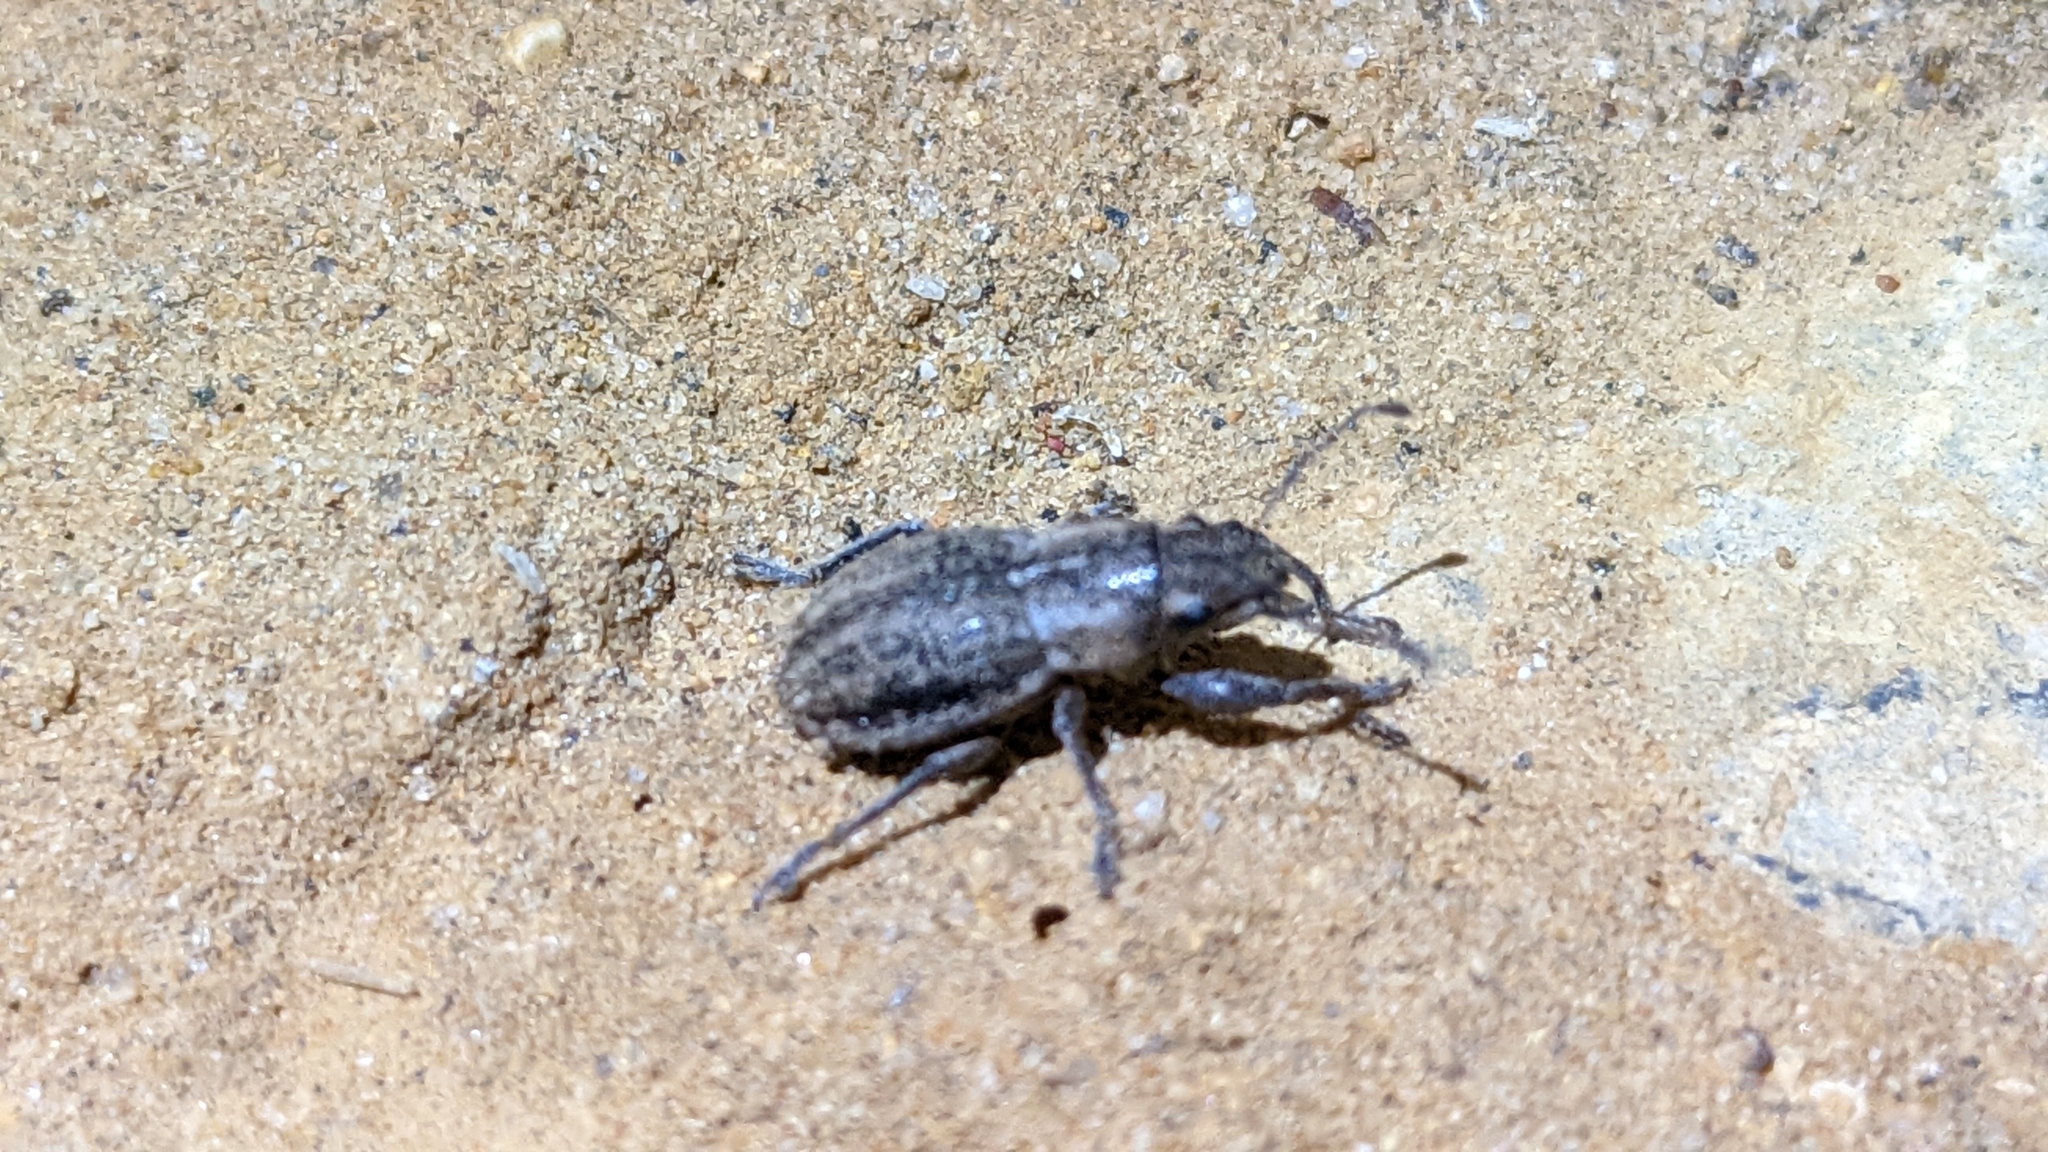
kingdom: Animalia
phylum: Arthropoda
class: Insecta
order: Coleoptera
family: Curculionidae
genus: Naupactus
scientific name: Naupactus peregrinus
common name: Whitefringed beetle
